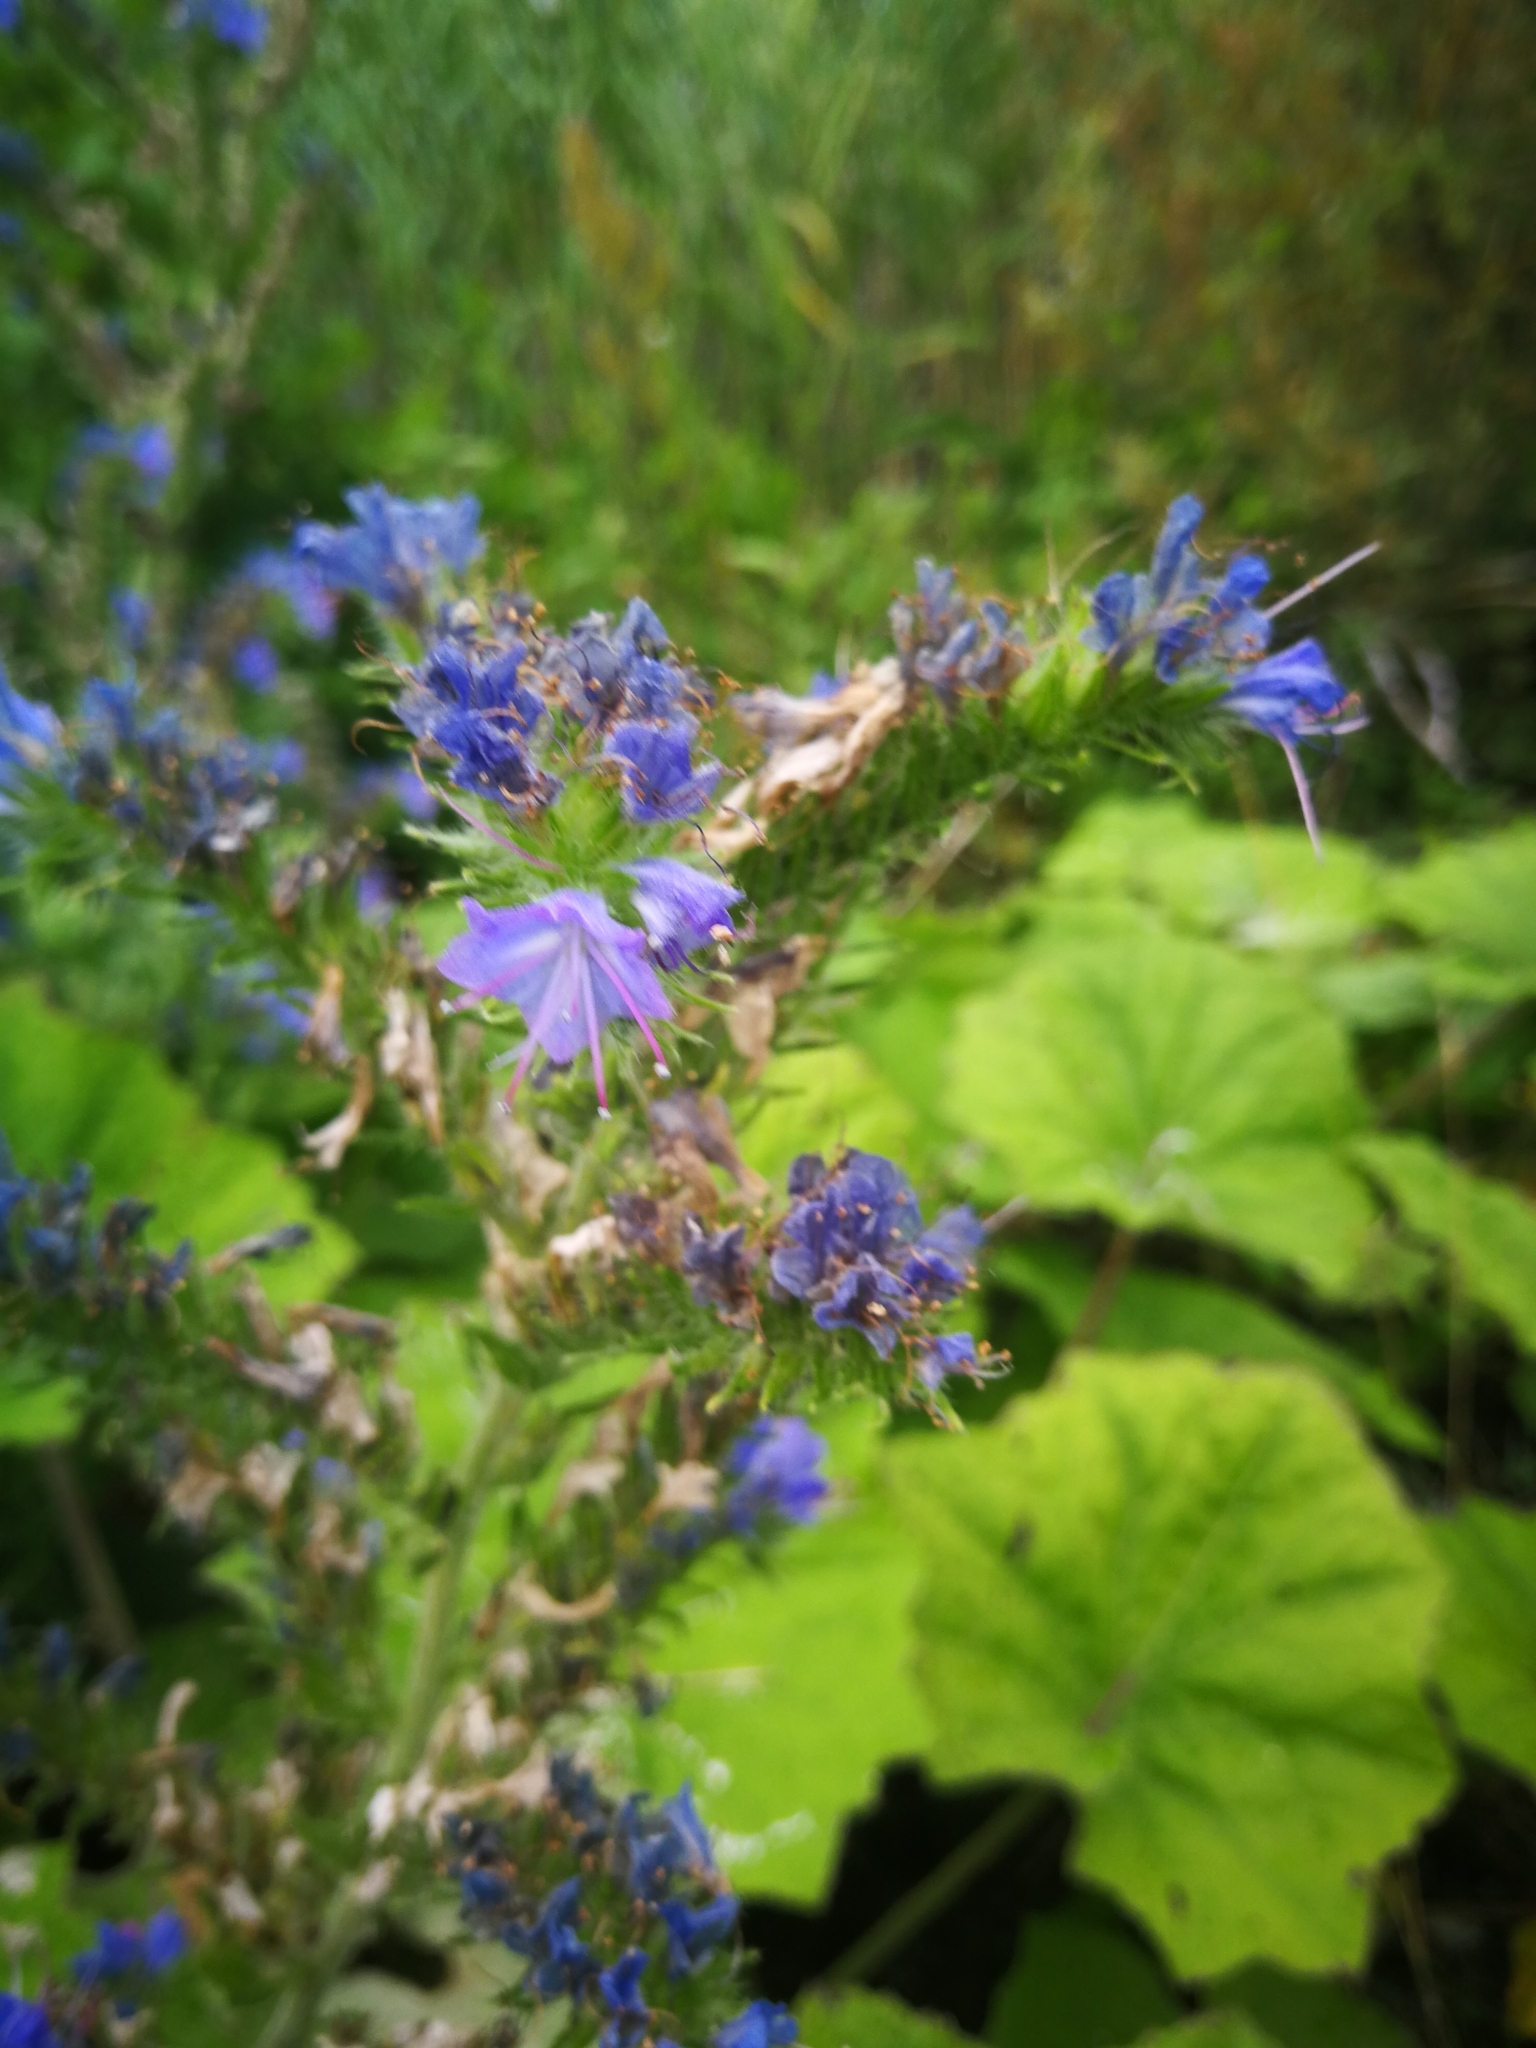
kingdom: Plantae
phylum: Tracheophyta
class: Magnoliopsida
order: Boraginales
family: Boraginaceae
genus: Echium
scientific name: Echium vulgare
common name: Common viper's bugloss
